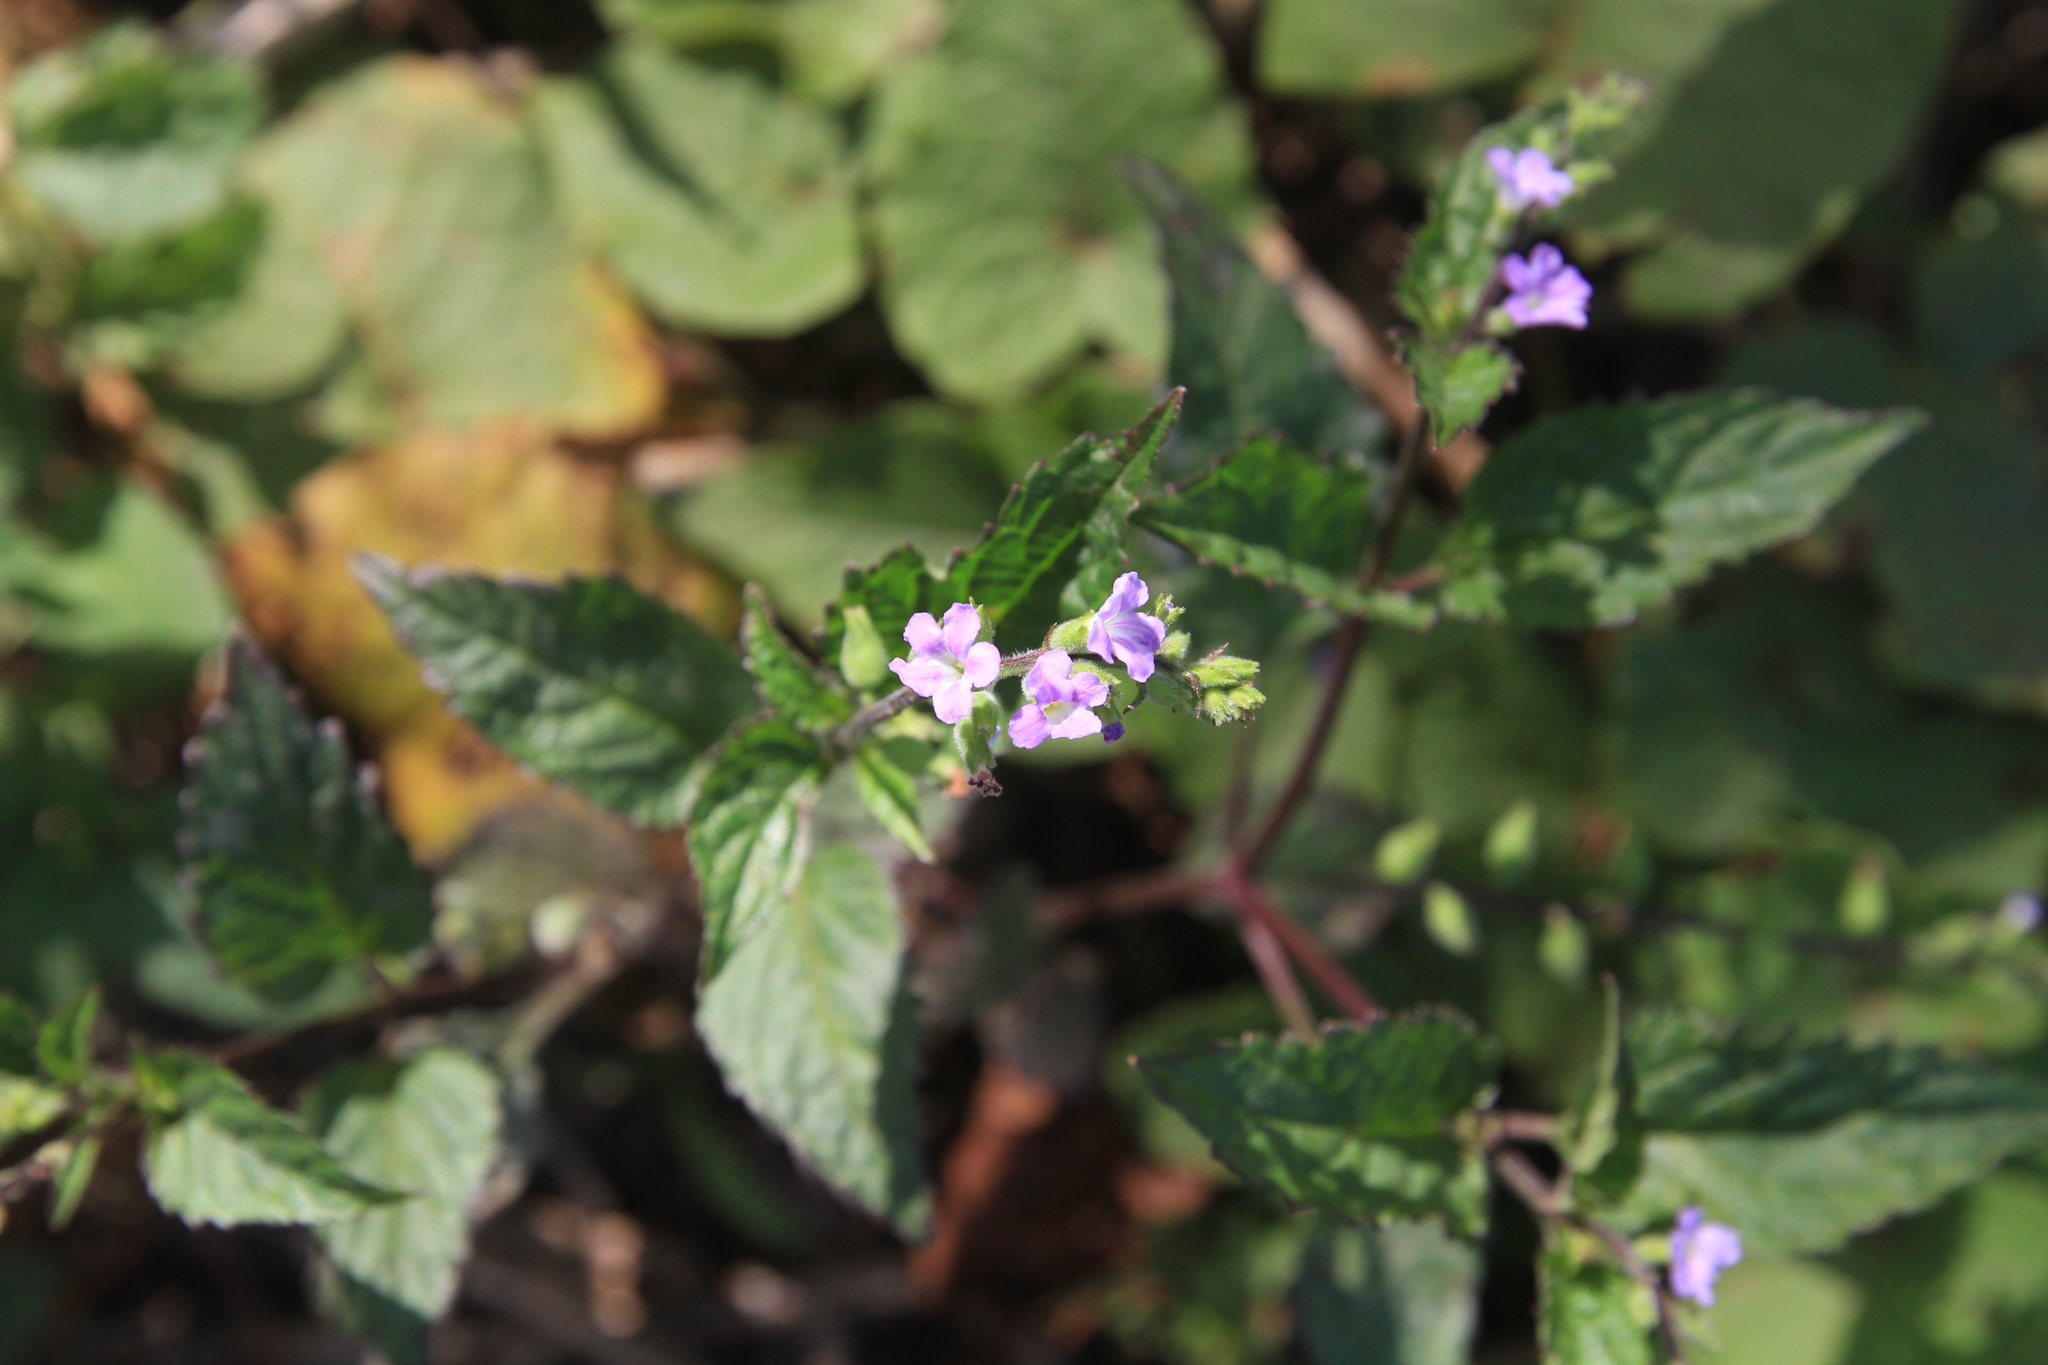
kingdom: Plantae
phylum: Tracheophyta
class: Magnoliopsida
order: Lamiales
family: Verbenaceae
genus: Priva
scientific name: Priva lappulacea
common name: Fasten-'pon-coat
